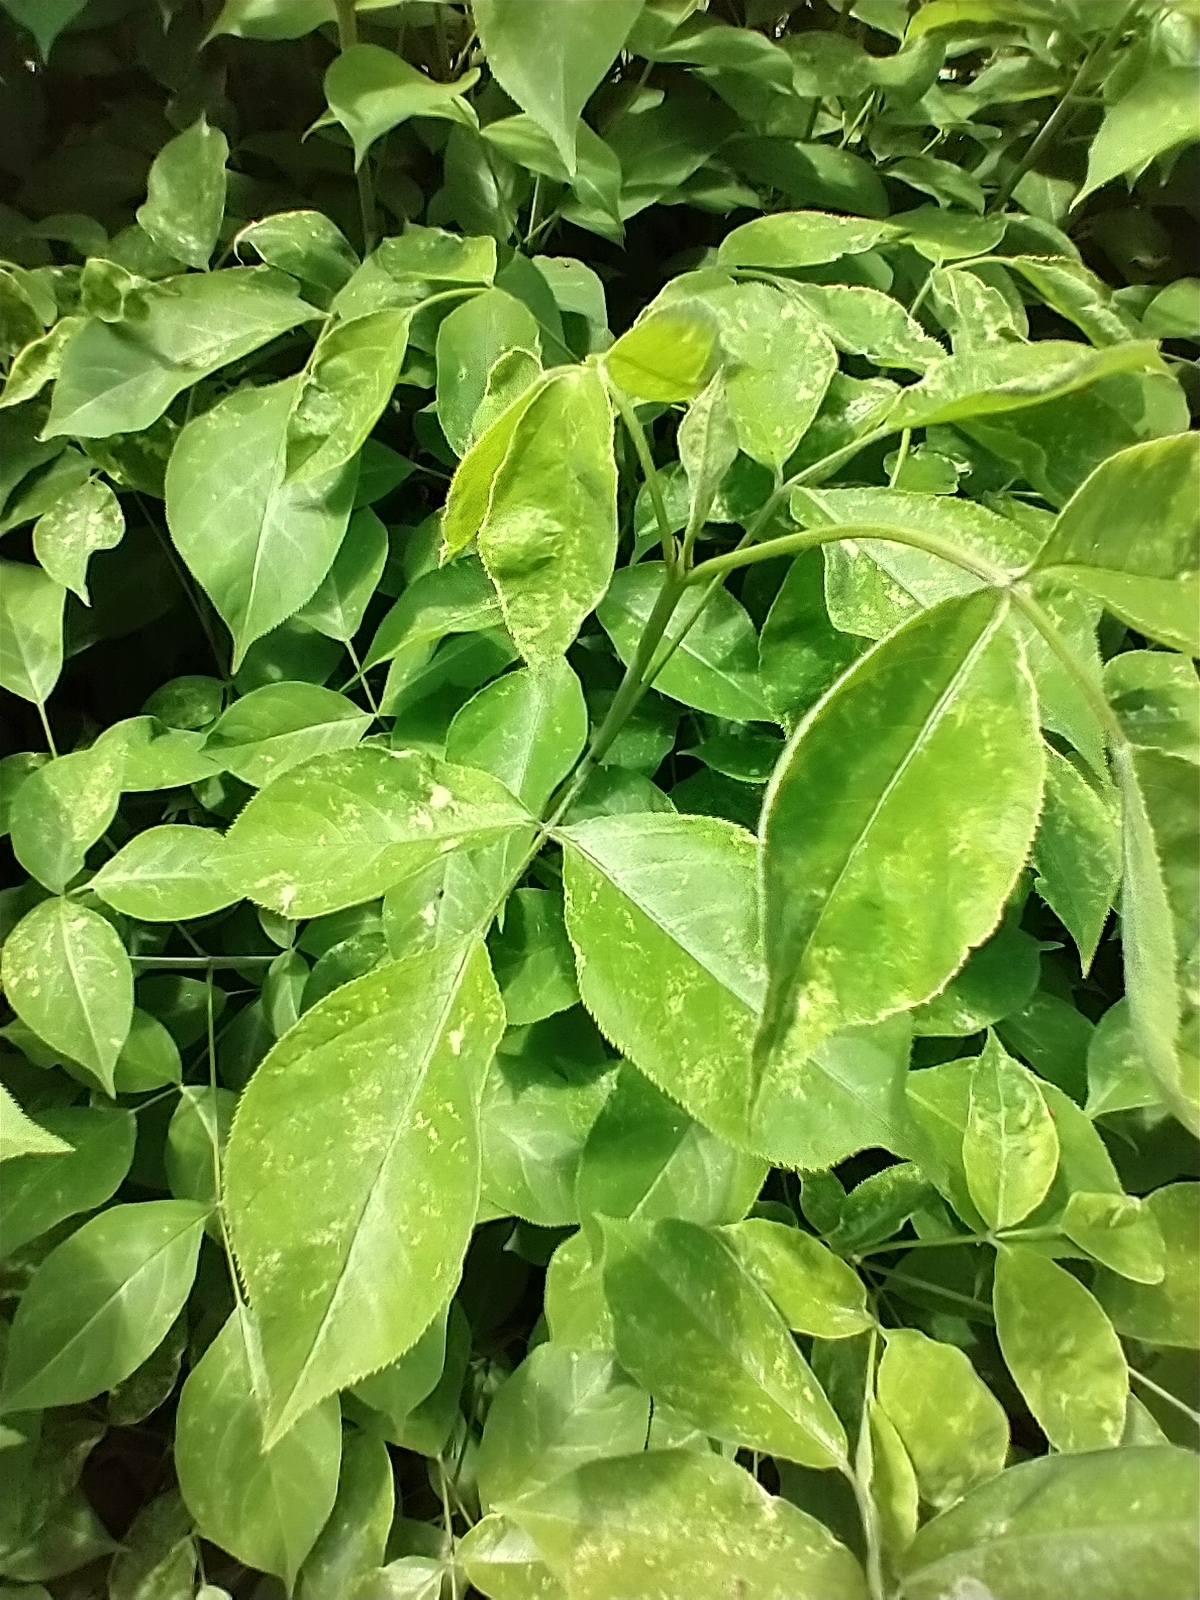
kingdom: Plantae
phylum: Tracheophyta
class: Magnoliopsida
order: Crossosomatales
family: Staphyleaceae
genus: Staphylea
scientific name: Staphylea trifolia
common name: American bladdernut
